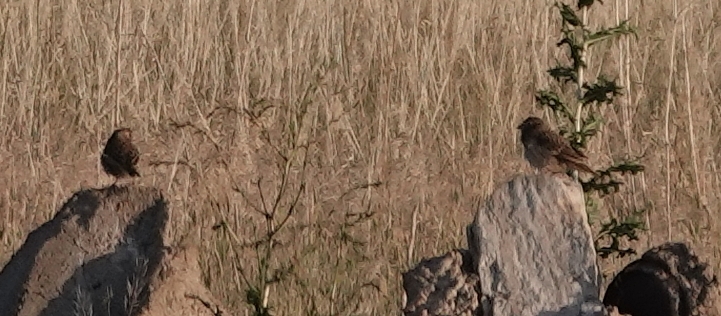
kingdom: Animalia
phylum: Chordata
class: Aves
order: Passeriformes
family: Passerellidae
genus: Pooecetes
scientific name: Pooecetes gramineus
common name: Vesper sparrow
